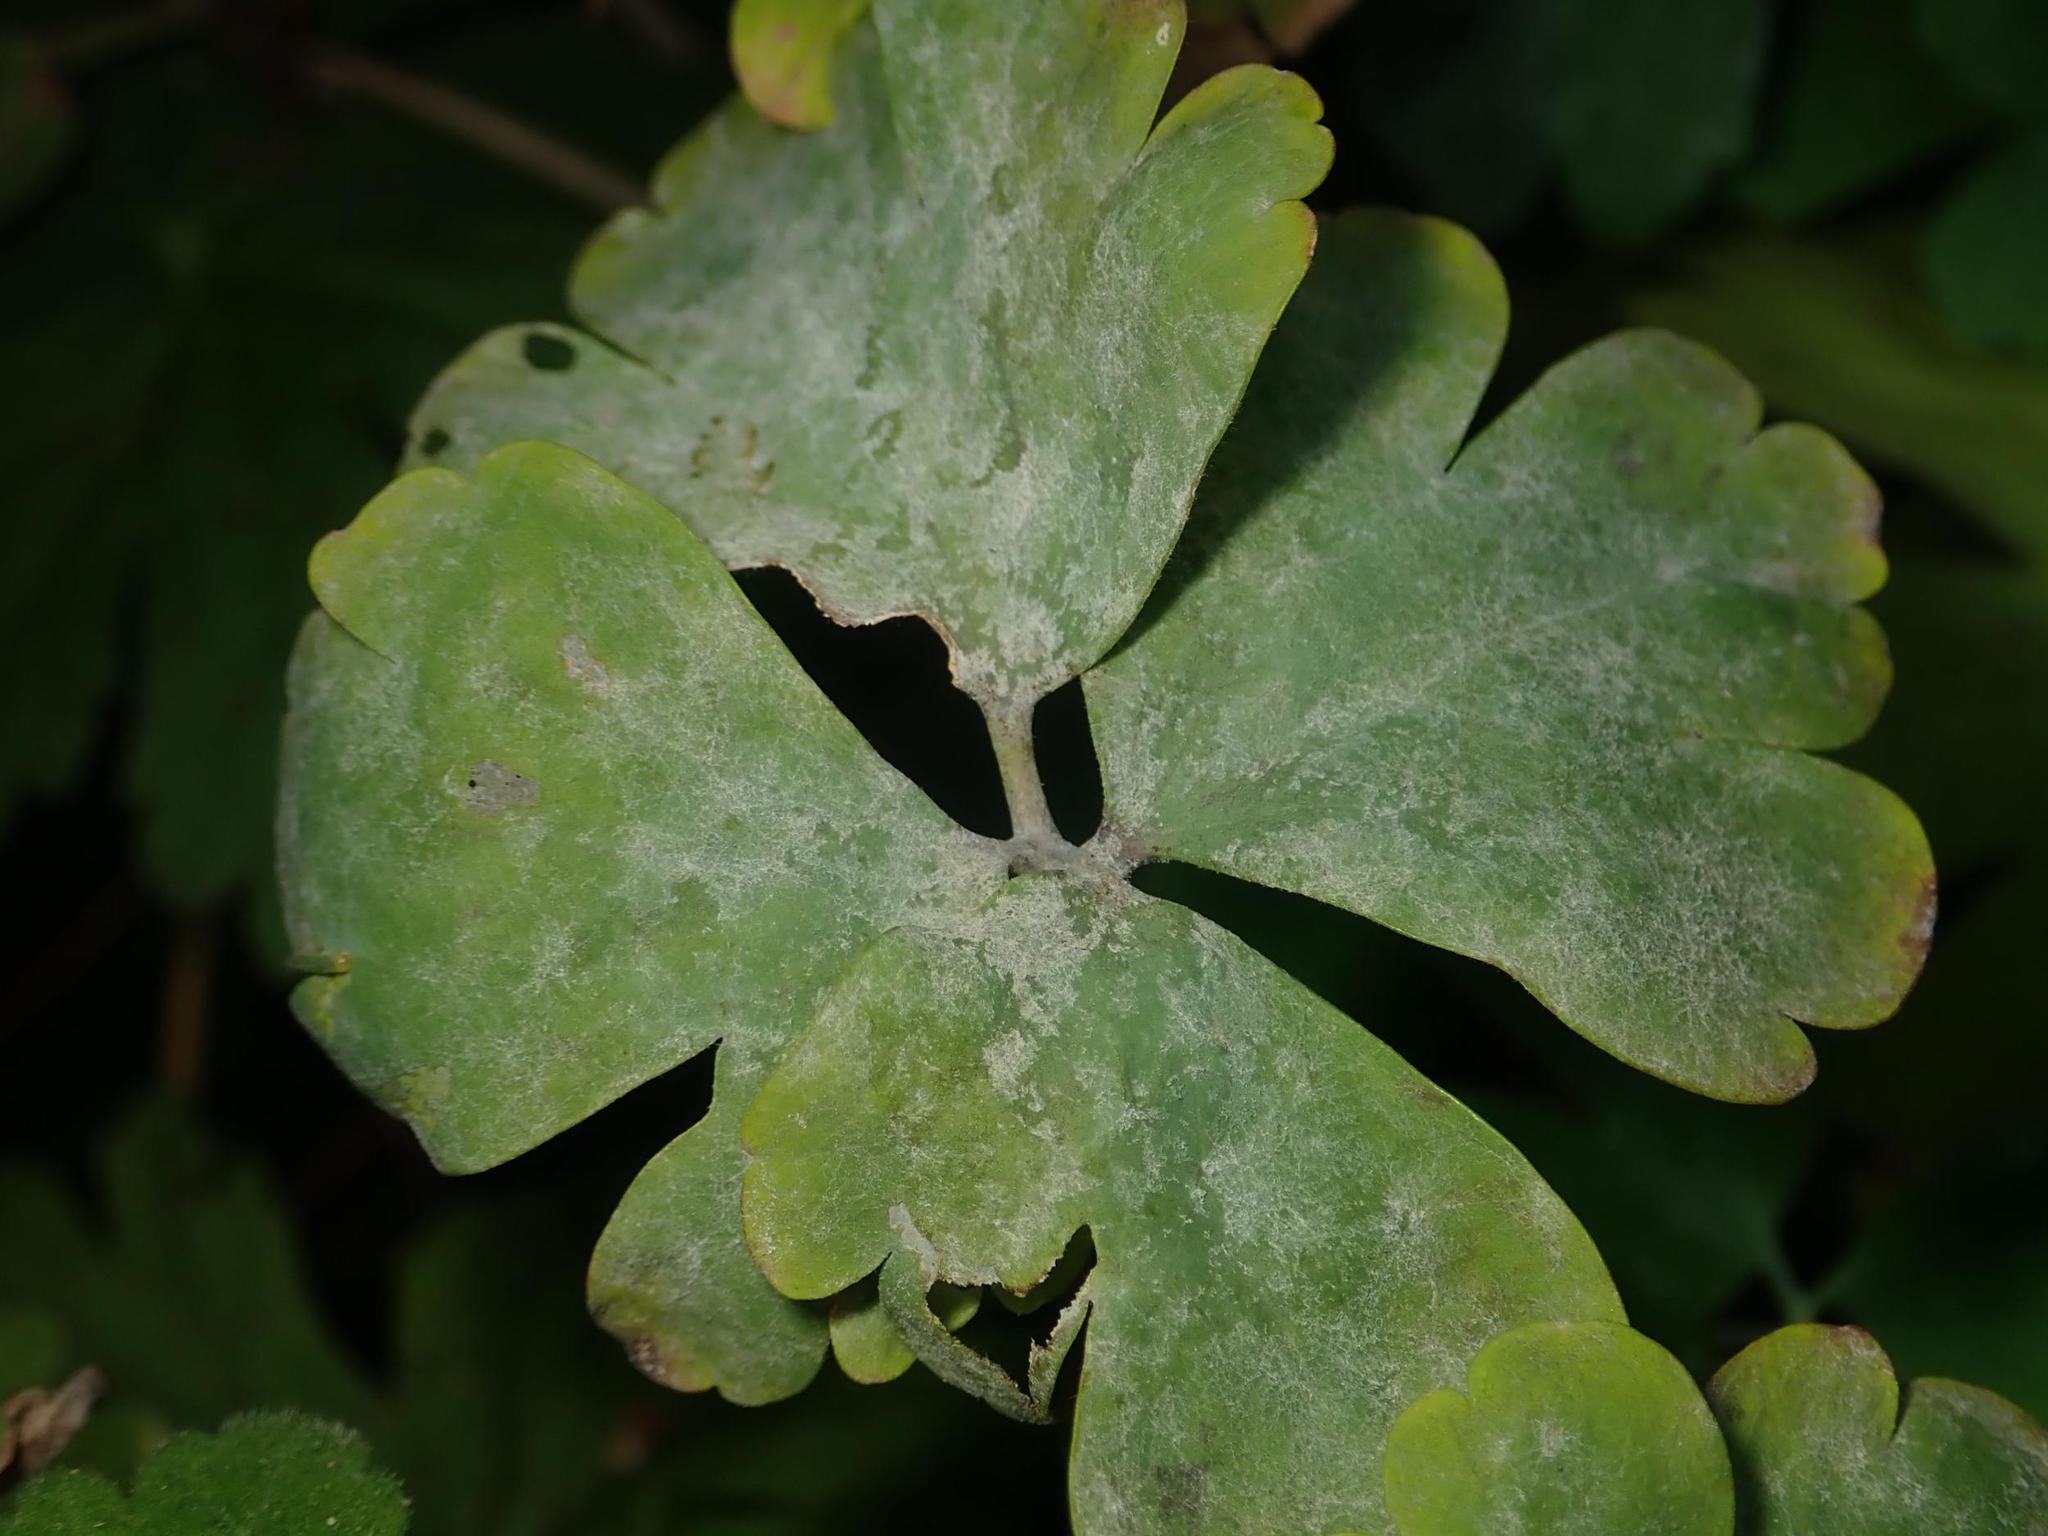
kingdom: Fungi
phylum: Ascomycota
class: Leotiomycetes
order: Helotiales
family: Erysiphaceae
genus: Erysiphe
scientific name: Erysiphe aquilegiae
